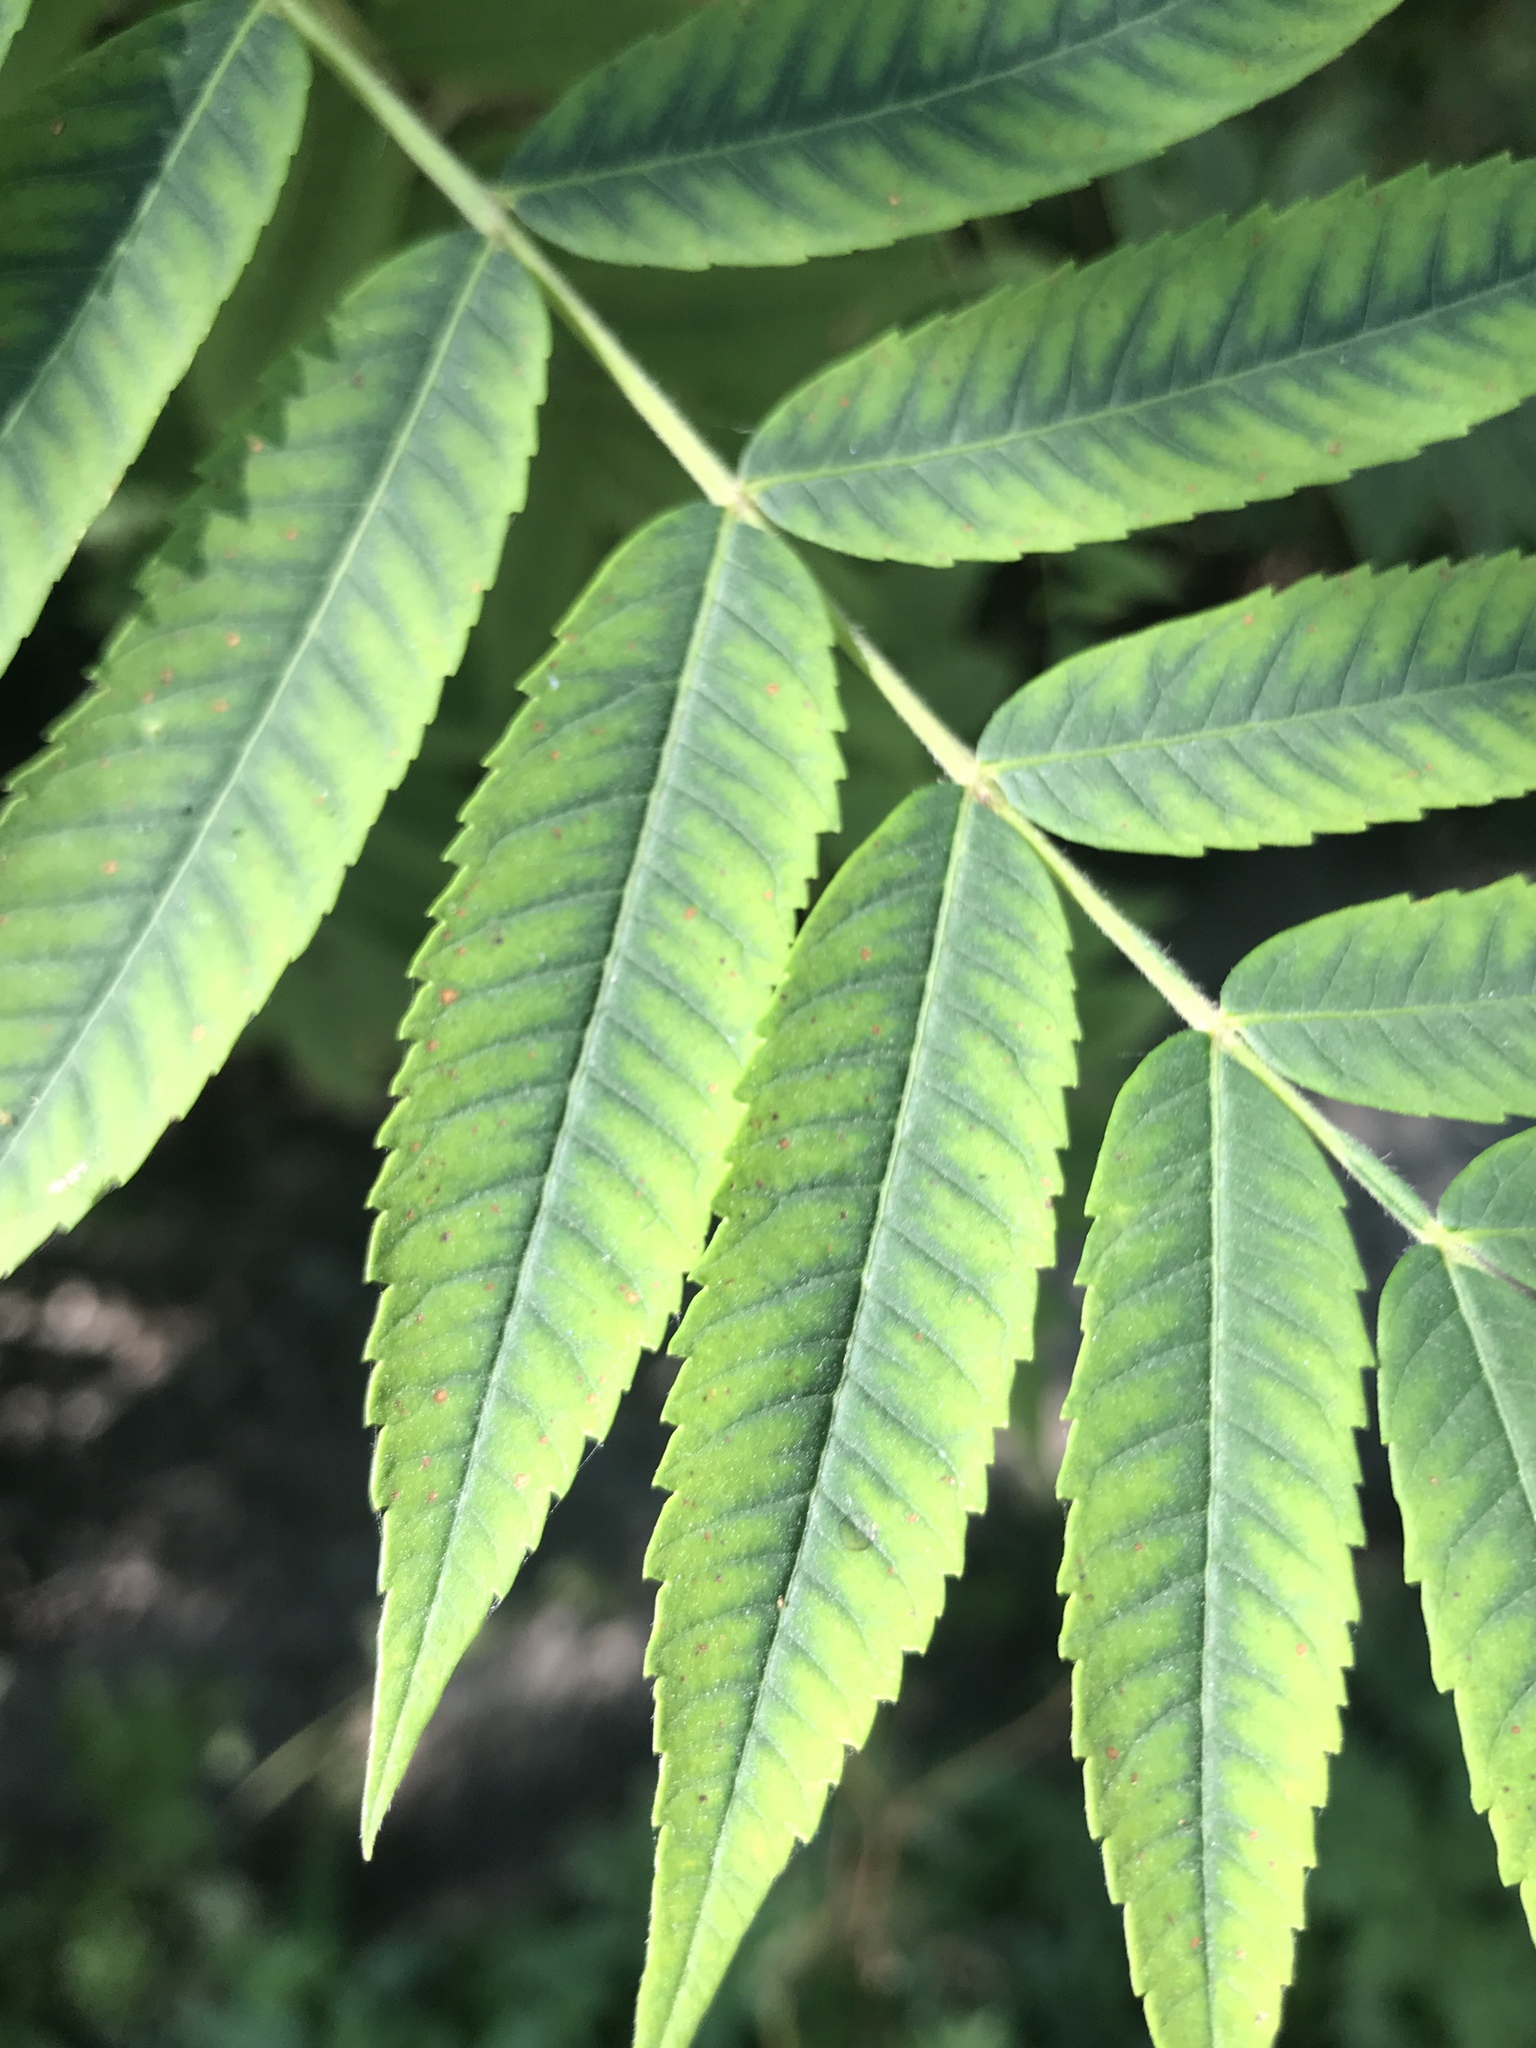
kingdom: Plantae
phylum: Tracheophyta
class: Magnoliopsida
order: Sapindales
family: Anacardiaceae
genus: Rhus
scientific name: Rhus typhina
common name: Staghorn sumac
